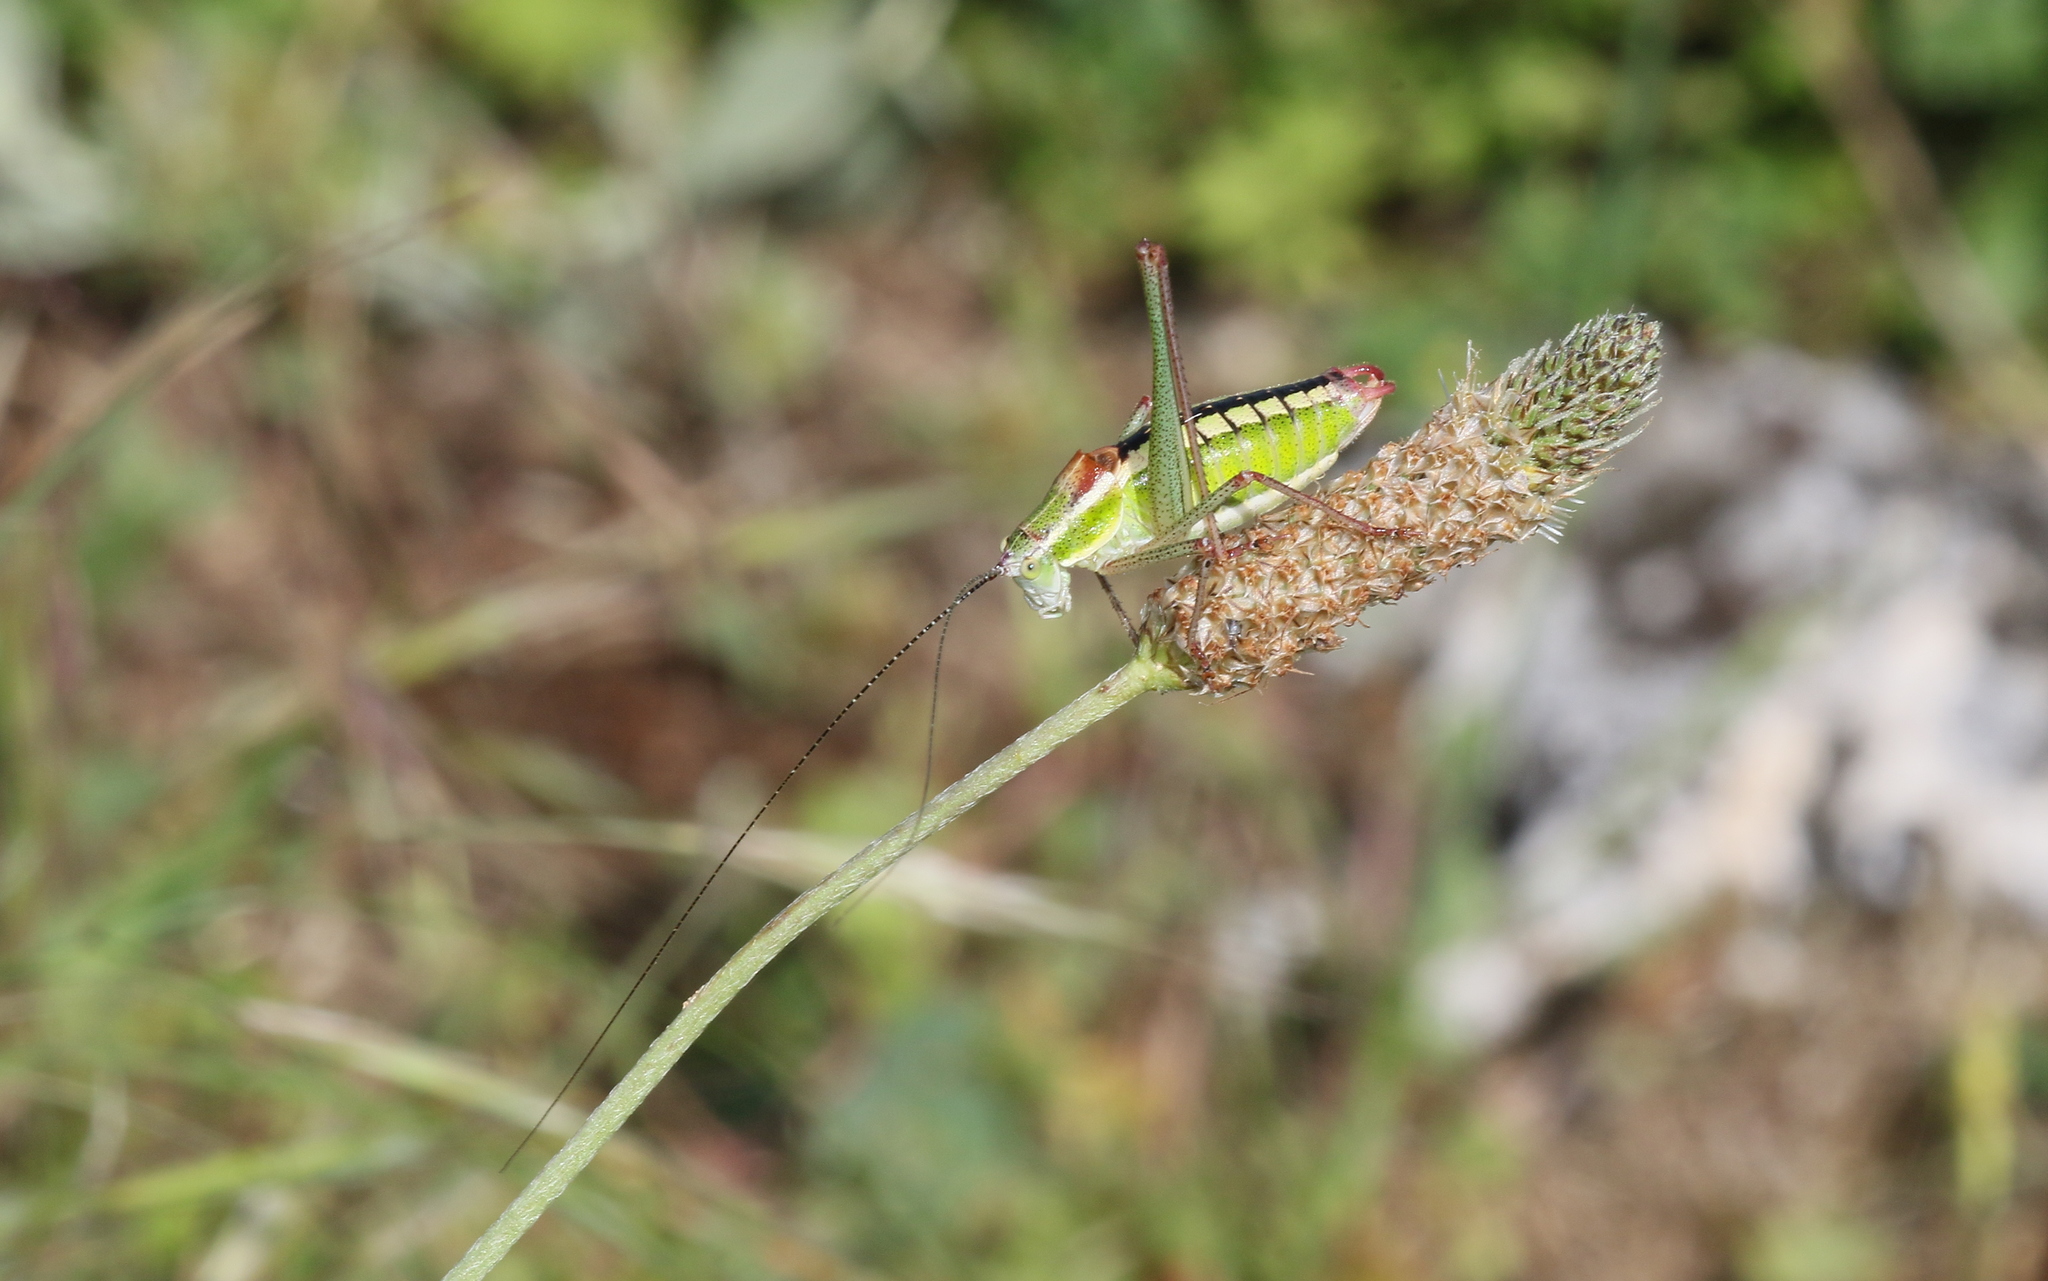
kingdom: Animalia
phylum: Arthropoda
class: Insecta
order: Orthoptera
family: Tettigoniidae
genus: Poecilimon
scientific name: Poecilimon macedonicus
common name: Macedonian bright bush-cricket
